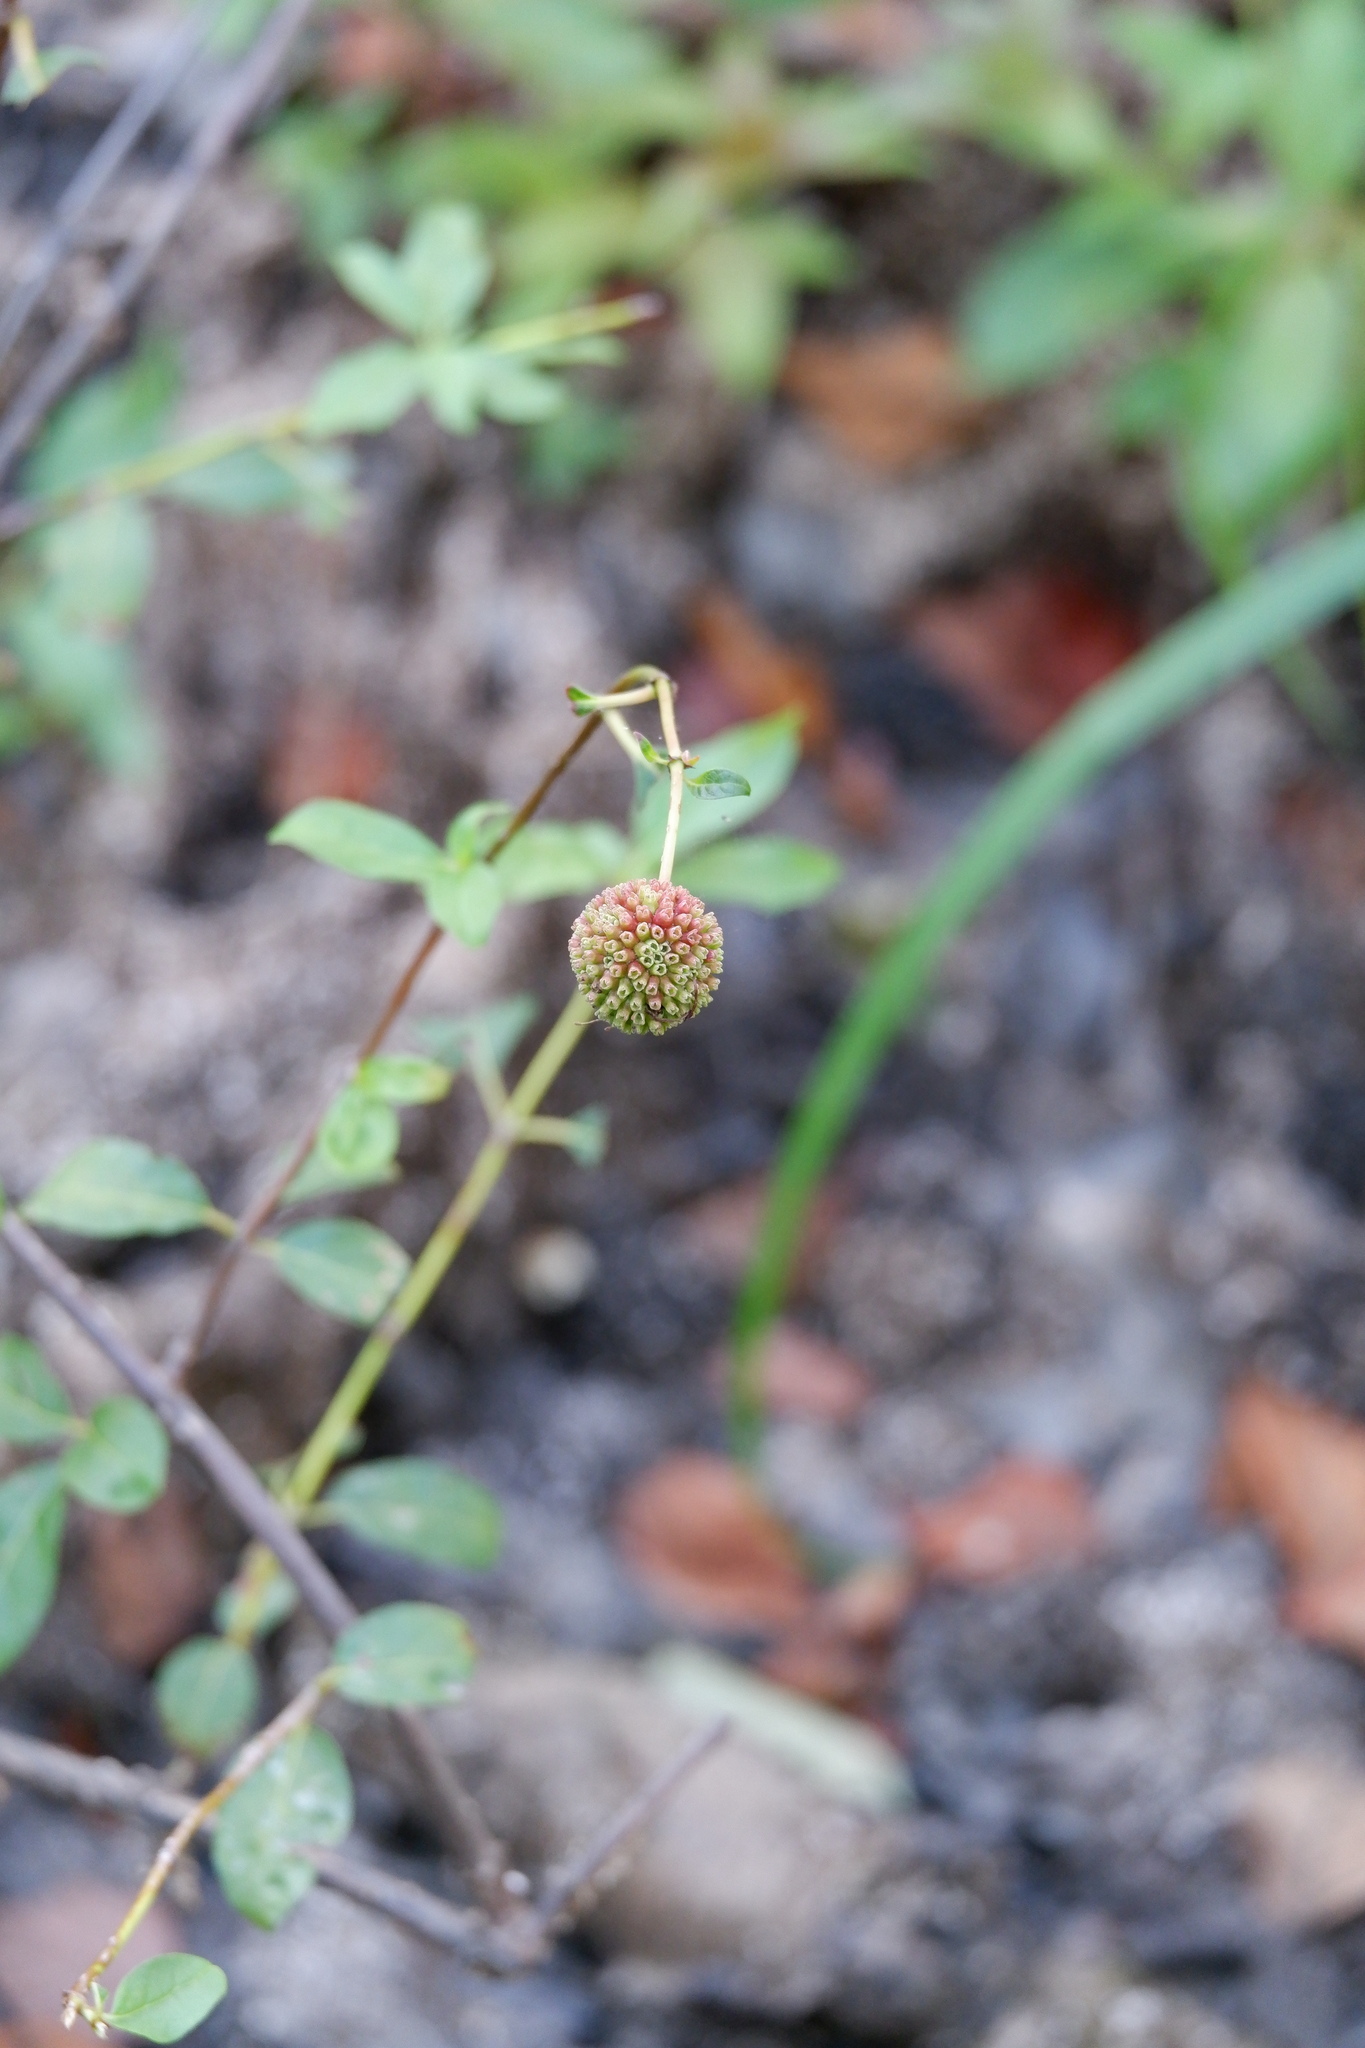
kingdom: Plantae
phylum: Tracheophyta
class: Magnoliopsida
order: Gentianales
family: Rubiaceae
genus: Cephalanthus
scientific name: Cephalanthus occidentalis
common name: Button-willow
